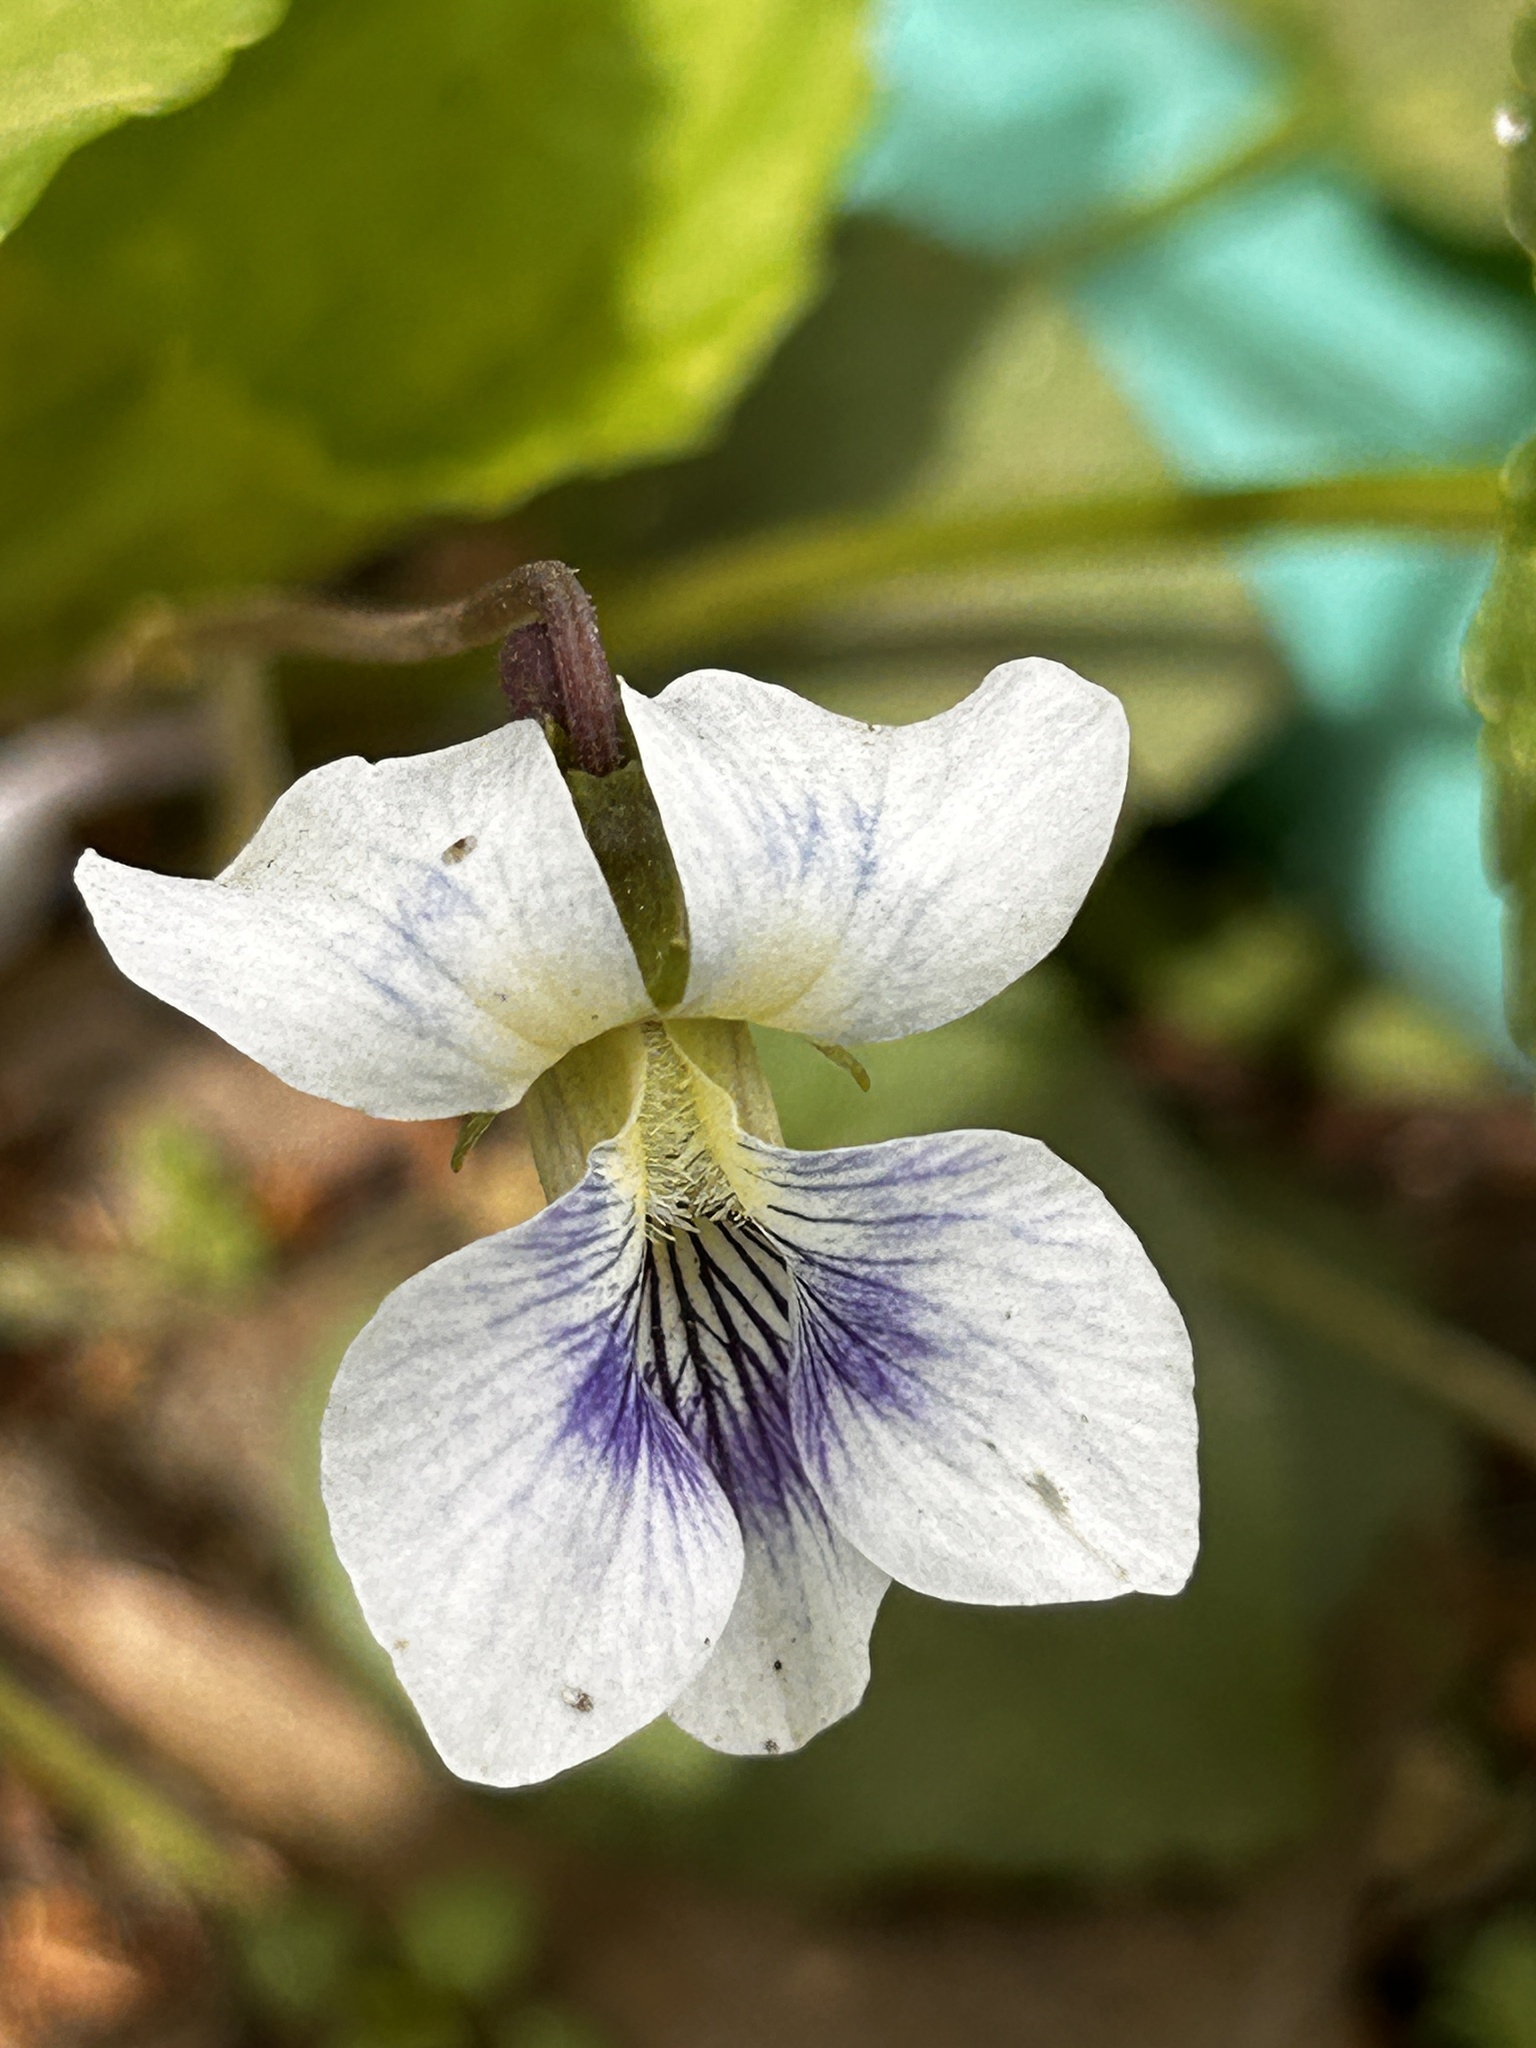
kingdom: Plantae
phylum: Tracheophyta
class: Magnoliopsida
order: Malpighiales
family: Violaceae
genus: Viola
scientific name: Viola sororia
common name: Dooryard violet
